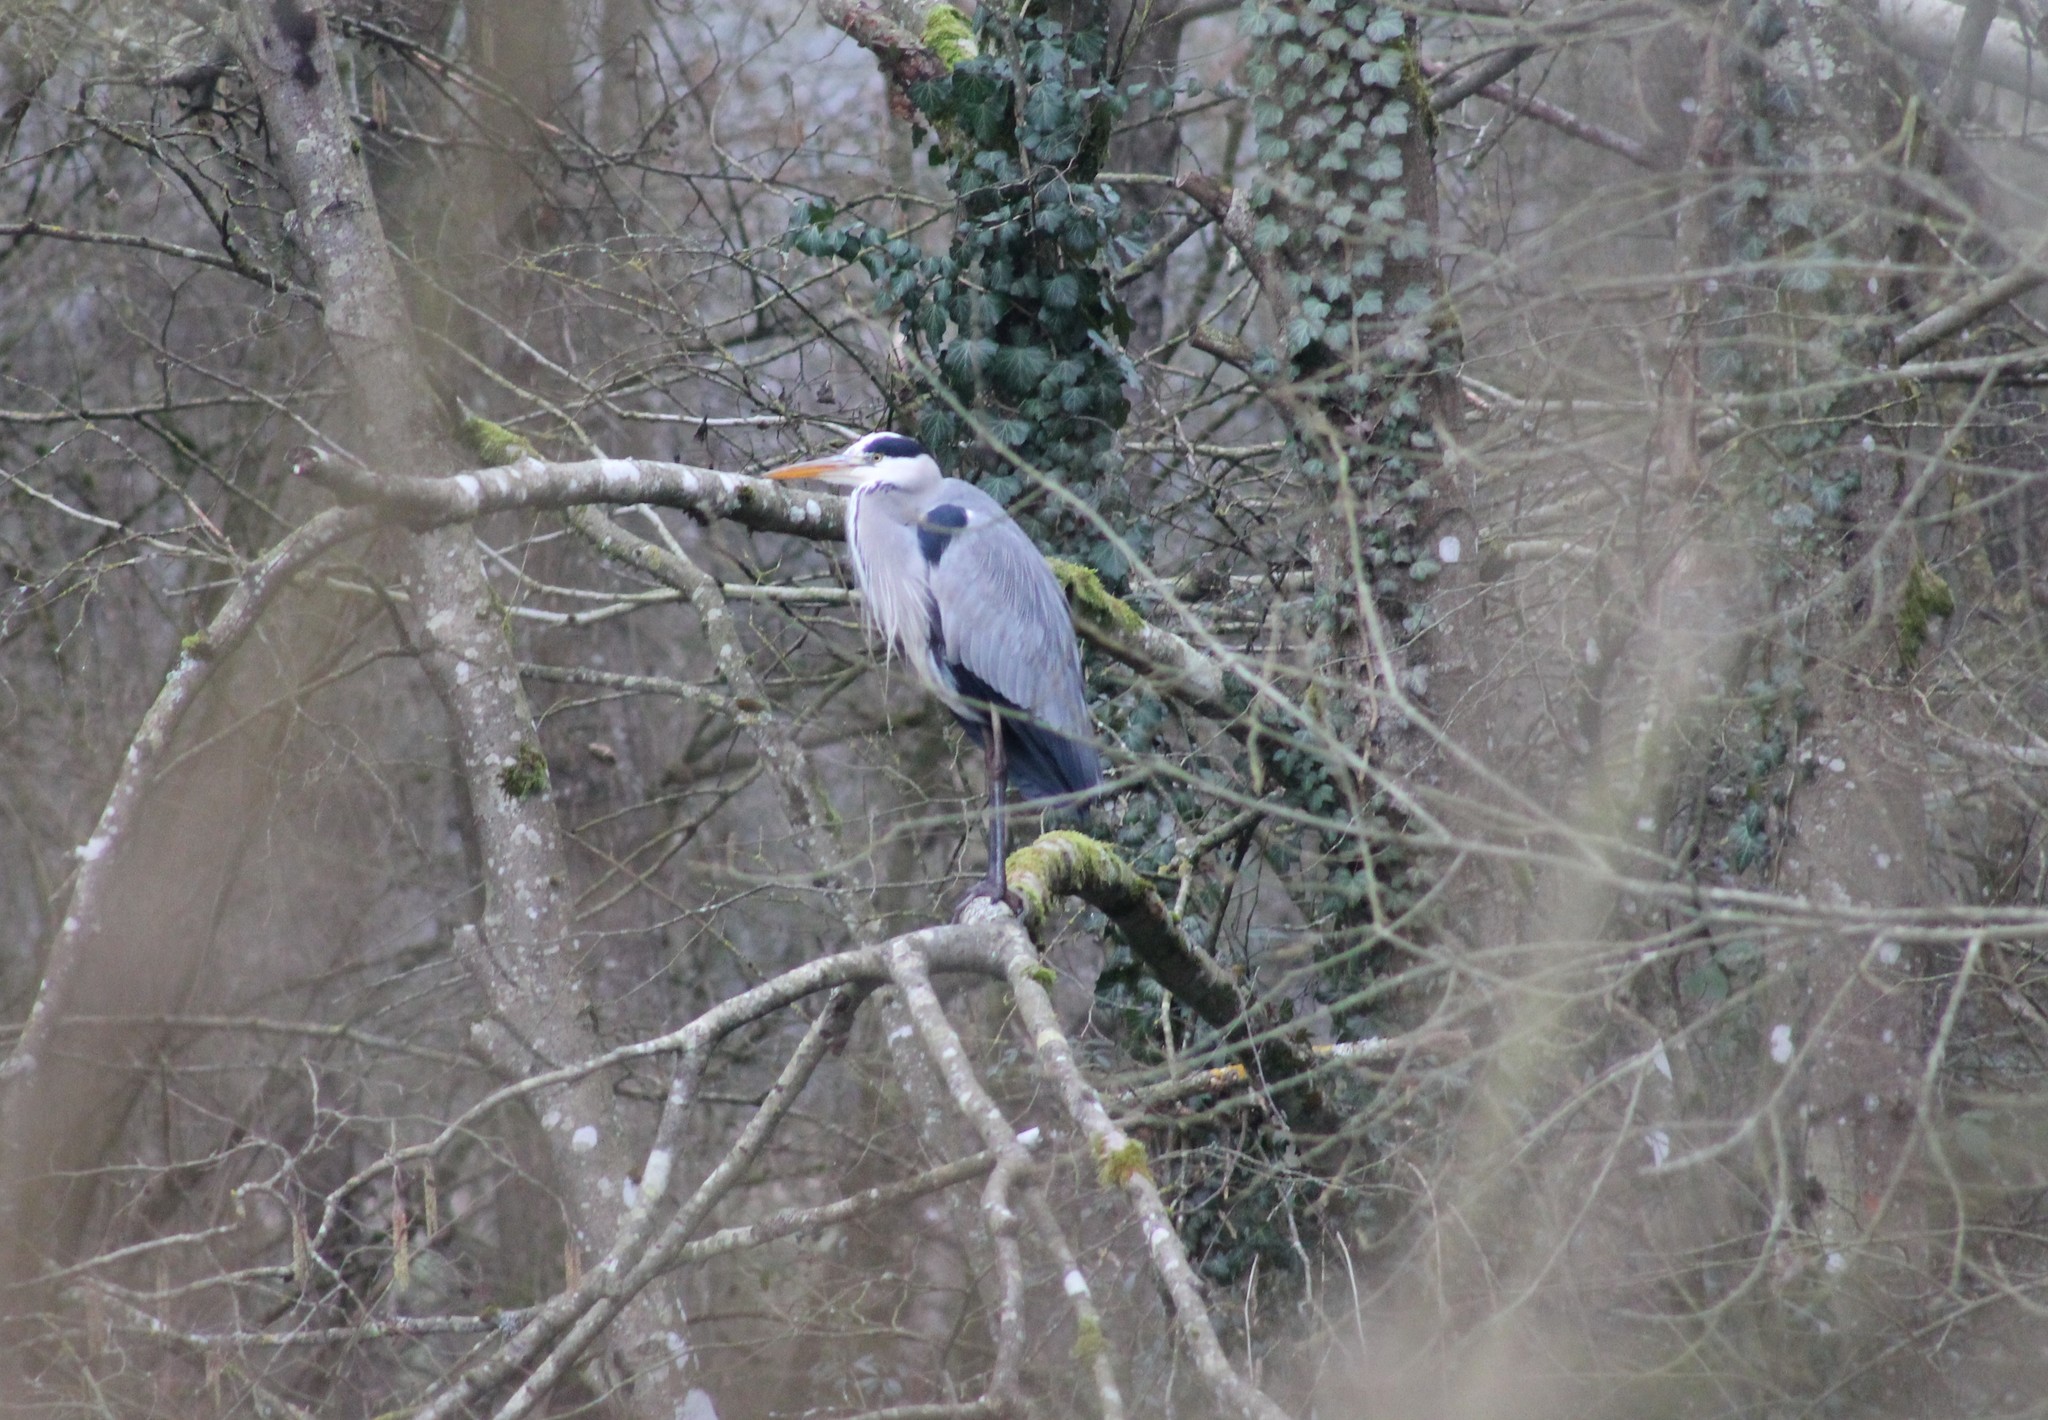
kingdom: Animalia
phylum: Chordata
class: Aves
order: Pelecaniformes
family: Ardeidae
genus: Ardea
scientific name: Ardea cinerea
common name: Grey heron
